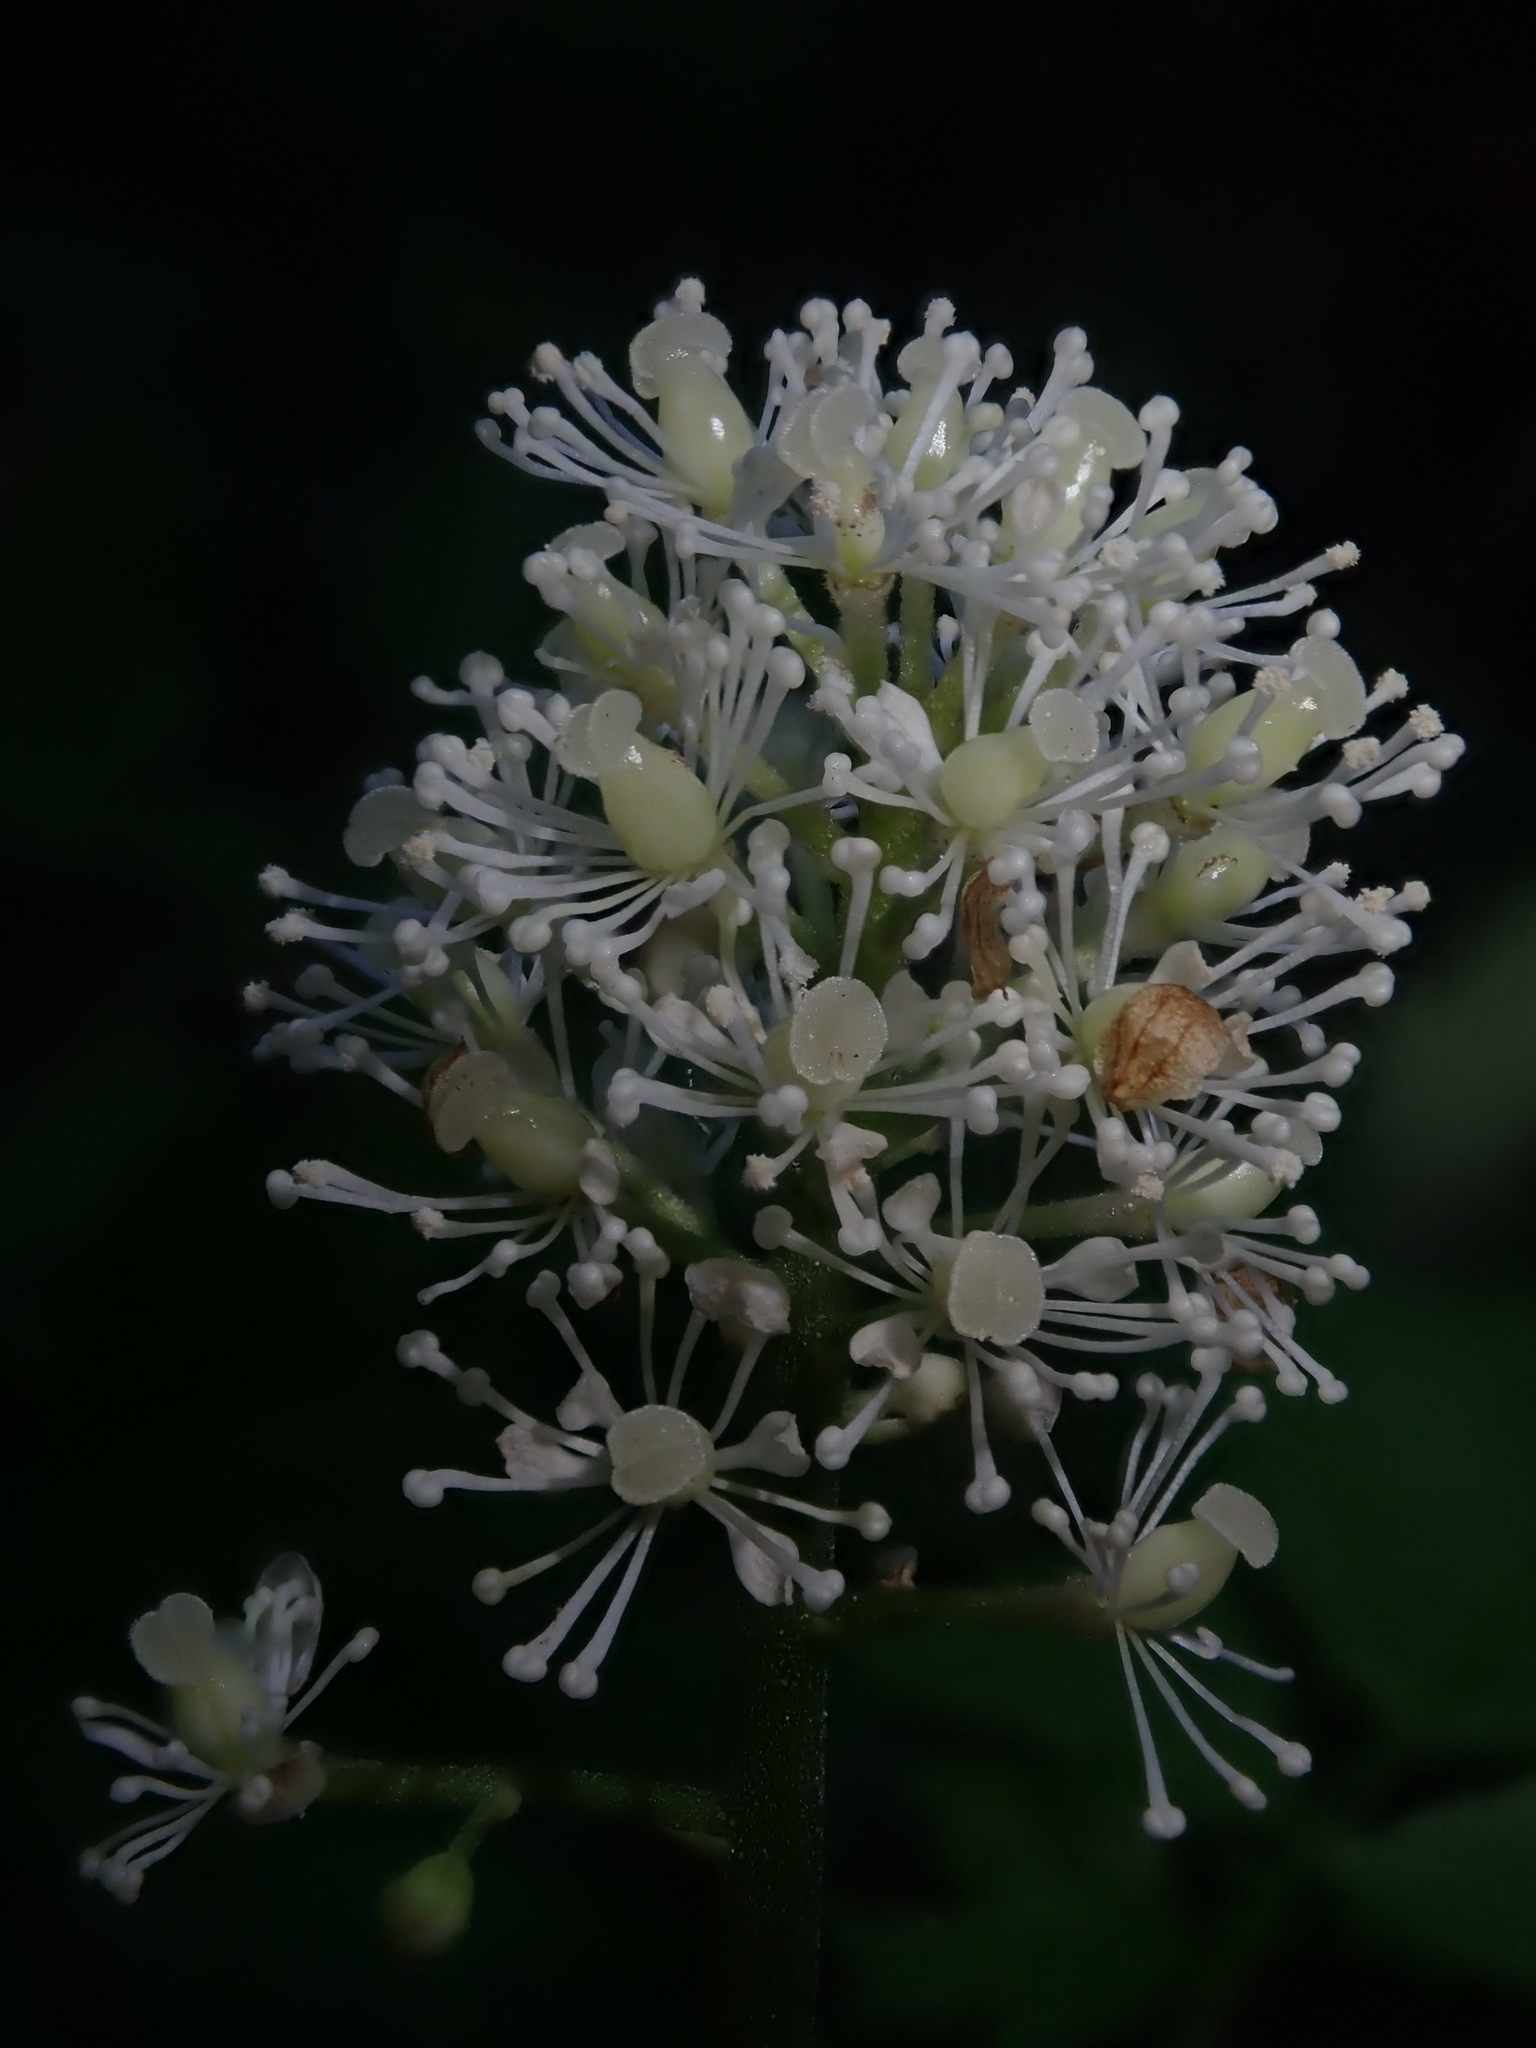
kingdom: Plantae
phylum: Tracheophyta
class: Magnoliopsida
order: Ranunculales
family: Ranunculaceae
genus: Actaea
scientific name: Actaea rubra
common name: Red baneberry
